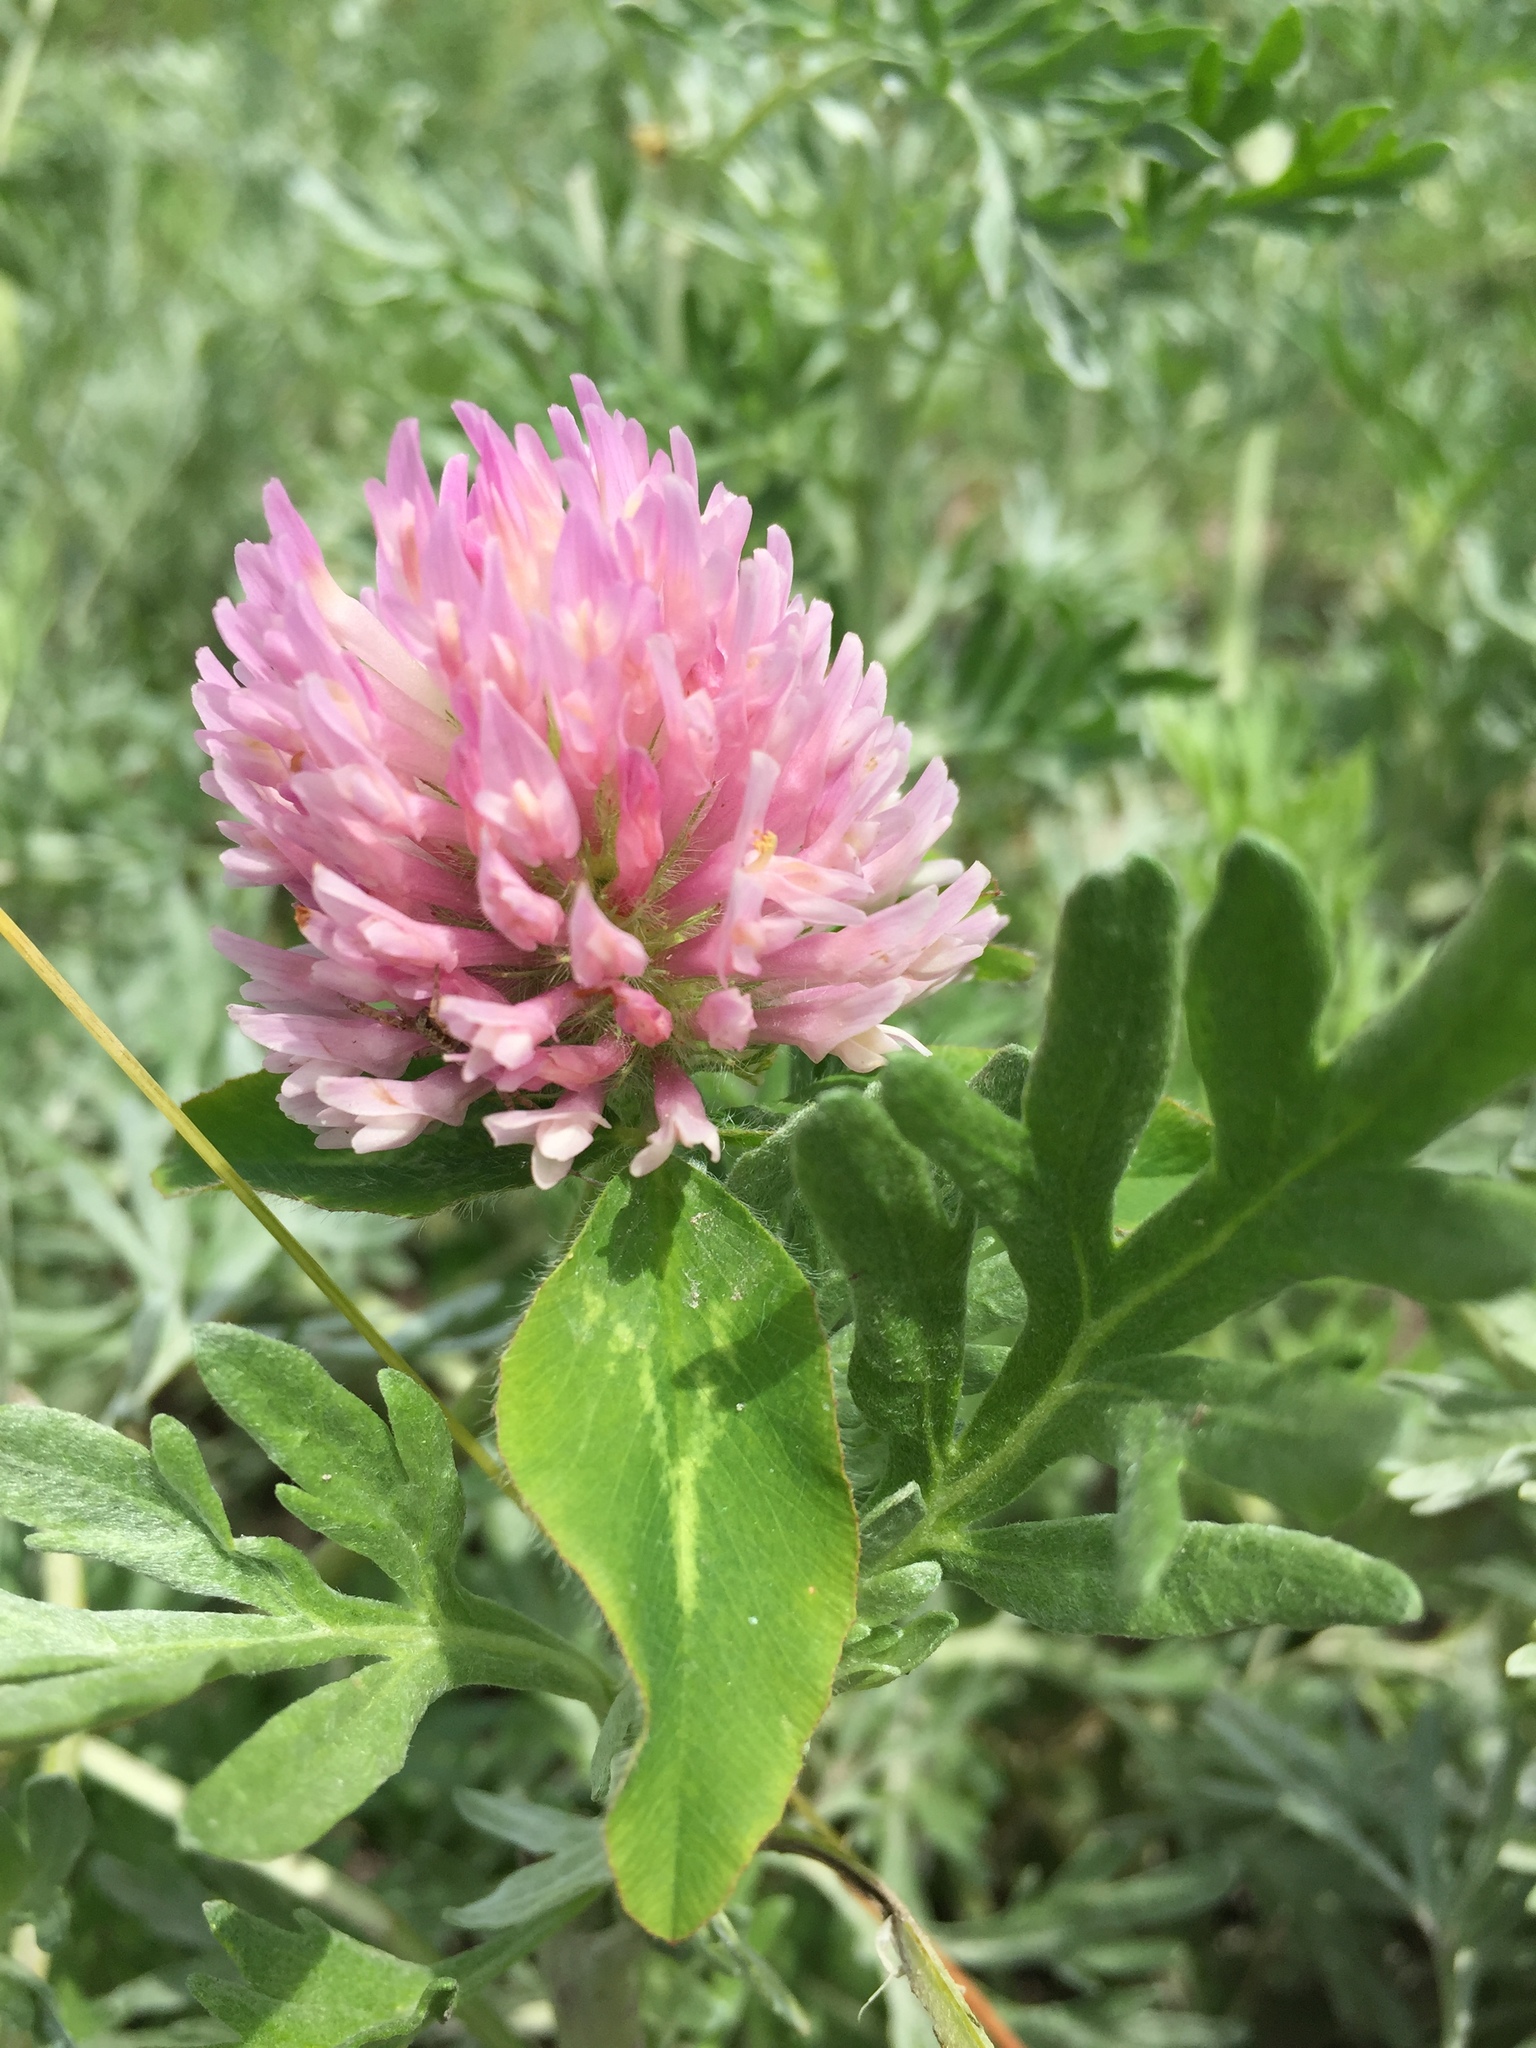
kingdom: Plantae
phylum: Tracheophyta
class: Magnoliopsida
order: Fabales
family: Fabaceae
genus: Trifolium
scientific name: Trifolium pratense
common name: Red clover
